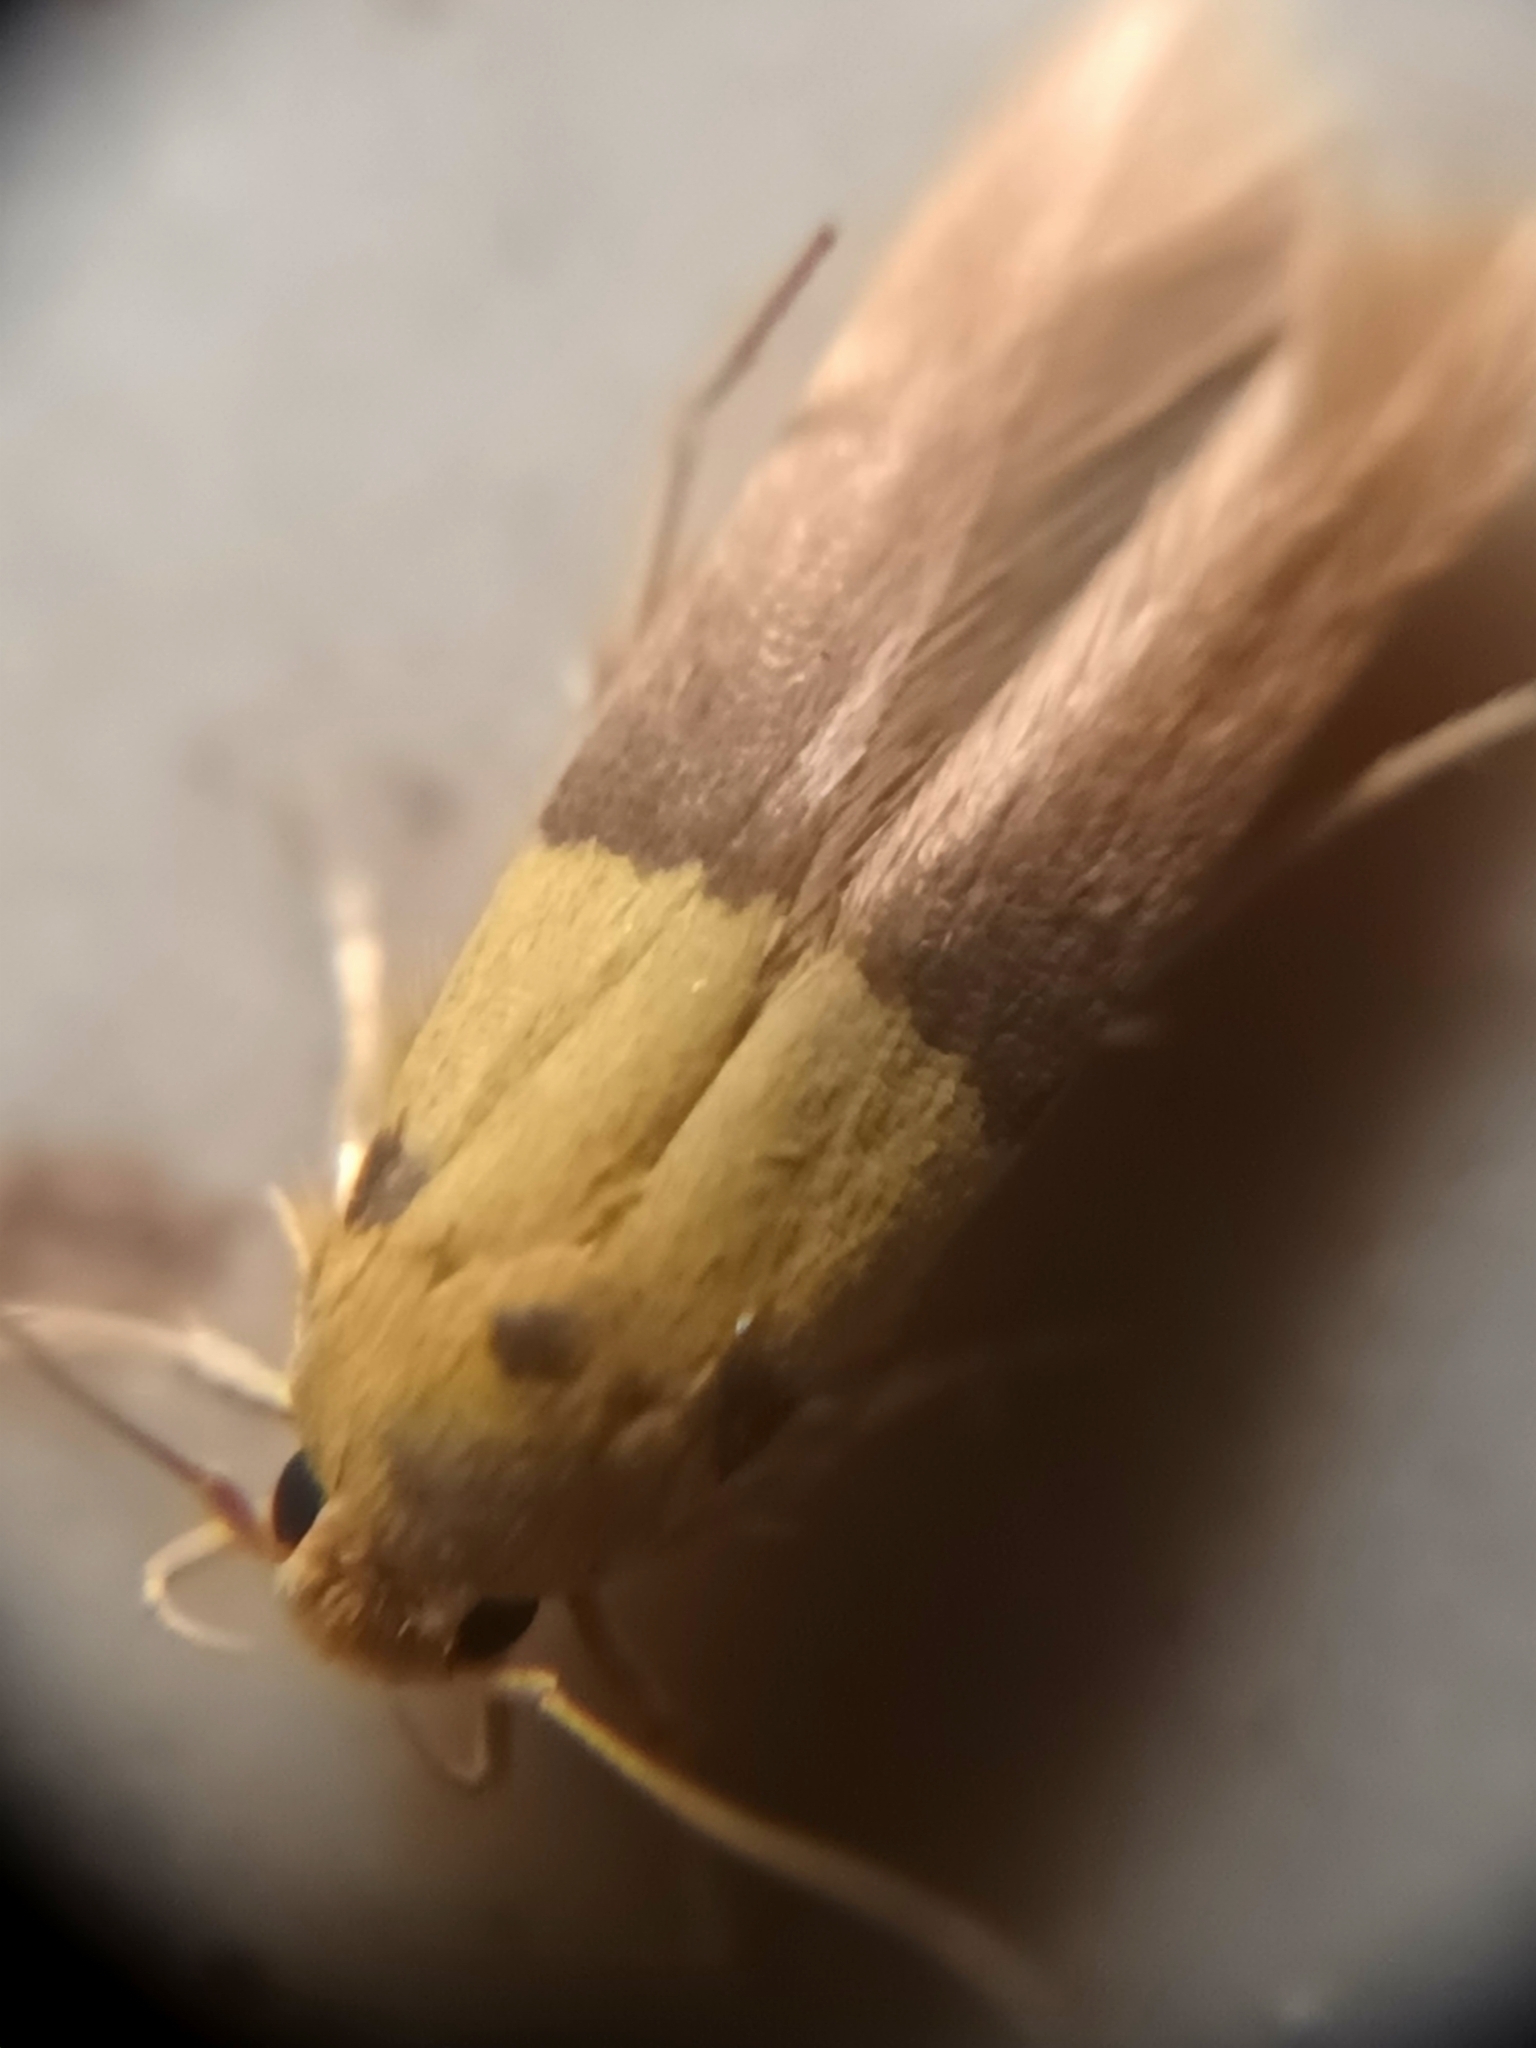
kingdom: Animalia
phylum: Arthropoda
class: Insecta
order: Lepidoptera
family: Stathmopodidae
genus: Stathmopoda
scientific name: Stathmopoda auriferella
